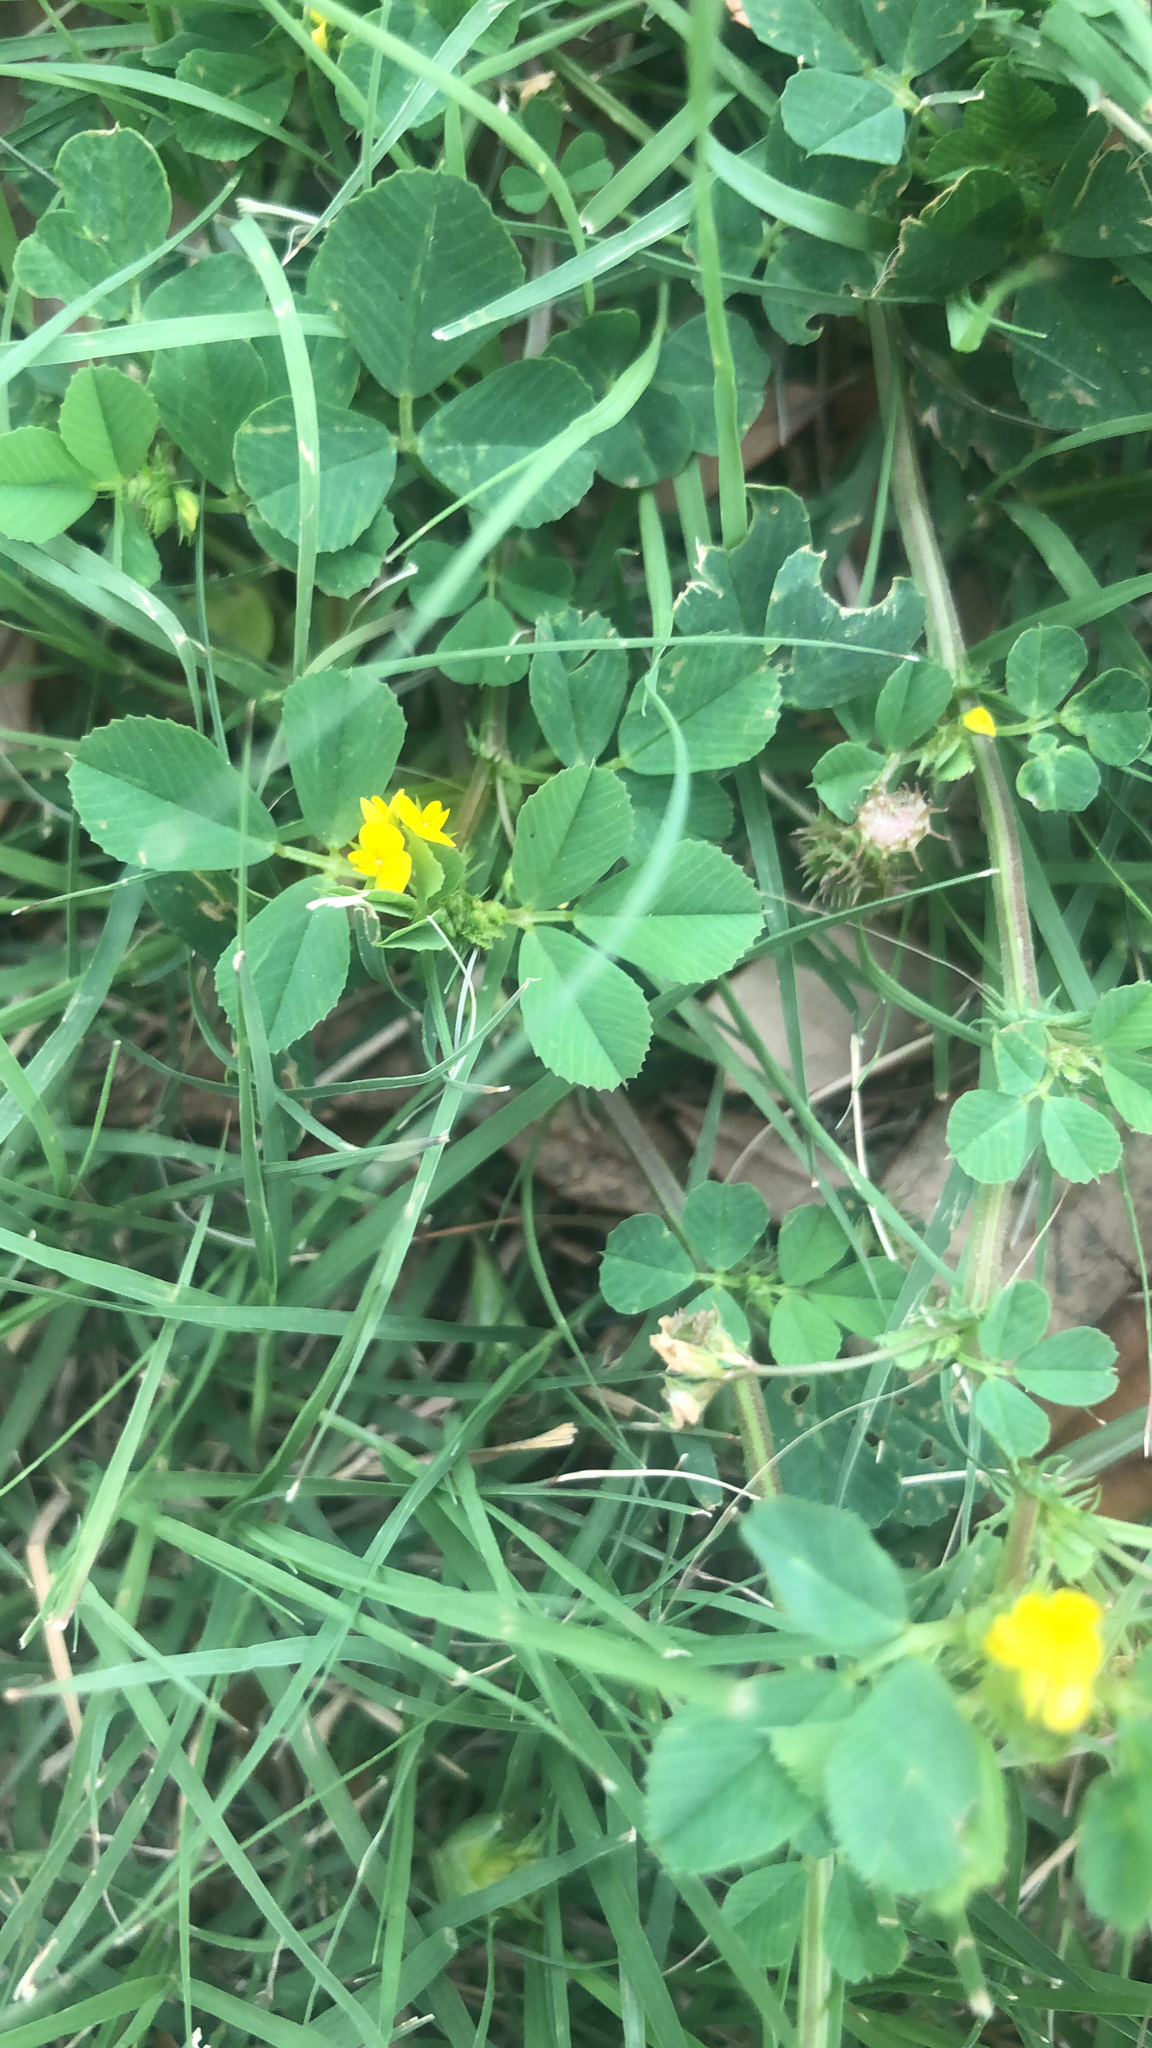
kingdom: Plantae
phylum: Tracheophyta
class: Magnoliopsida
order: Fabales
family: Fabaceae
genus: Medicago
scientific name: Medicago polymorpha
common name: Burclover
